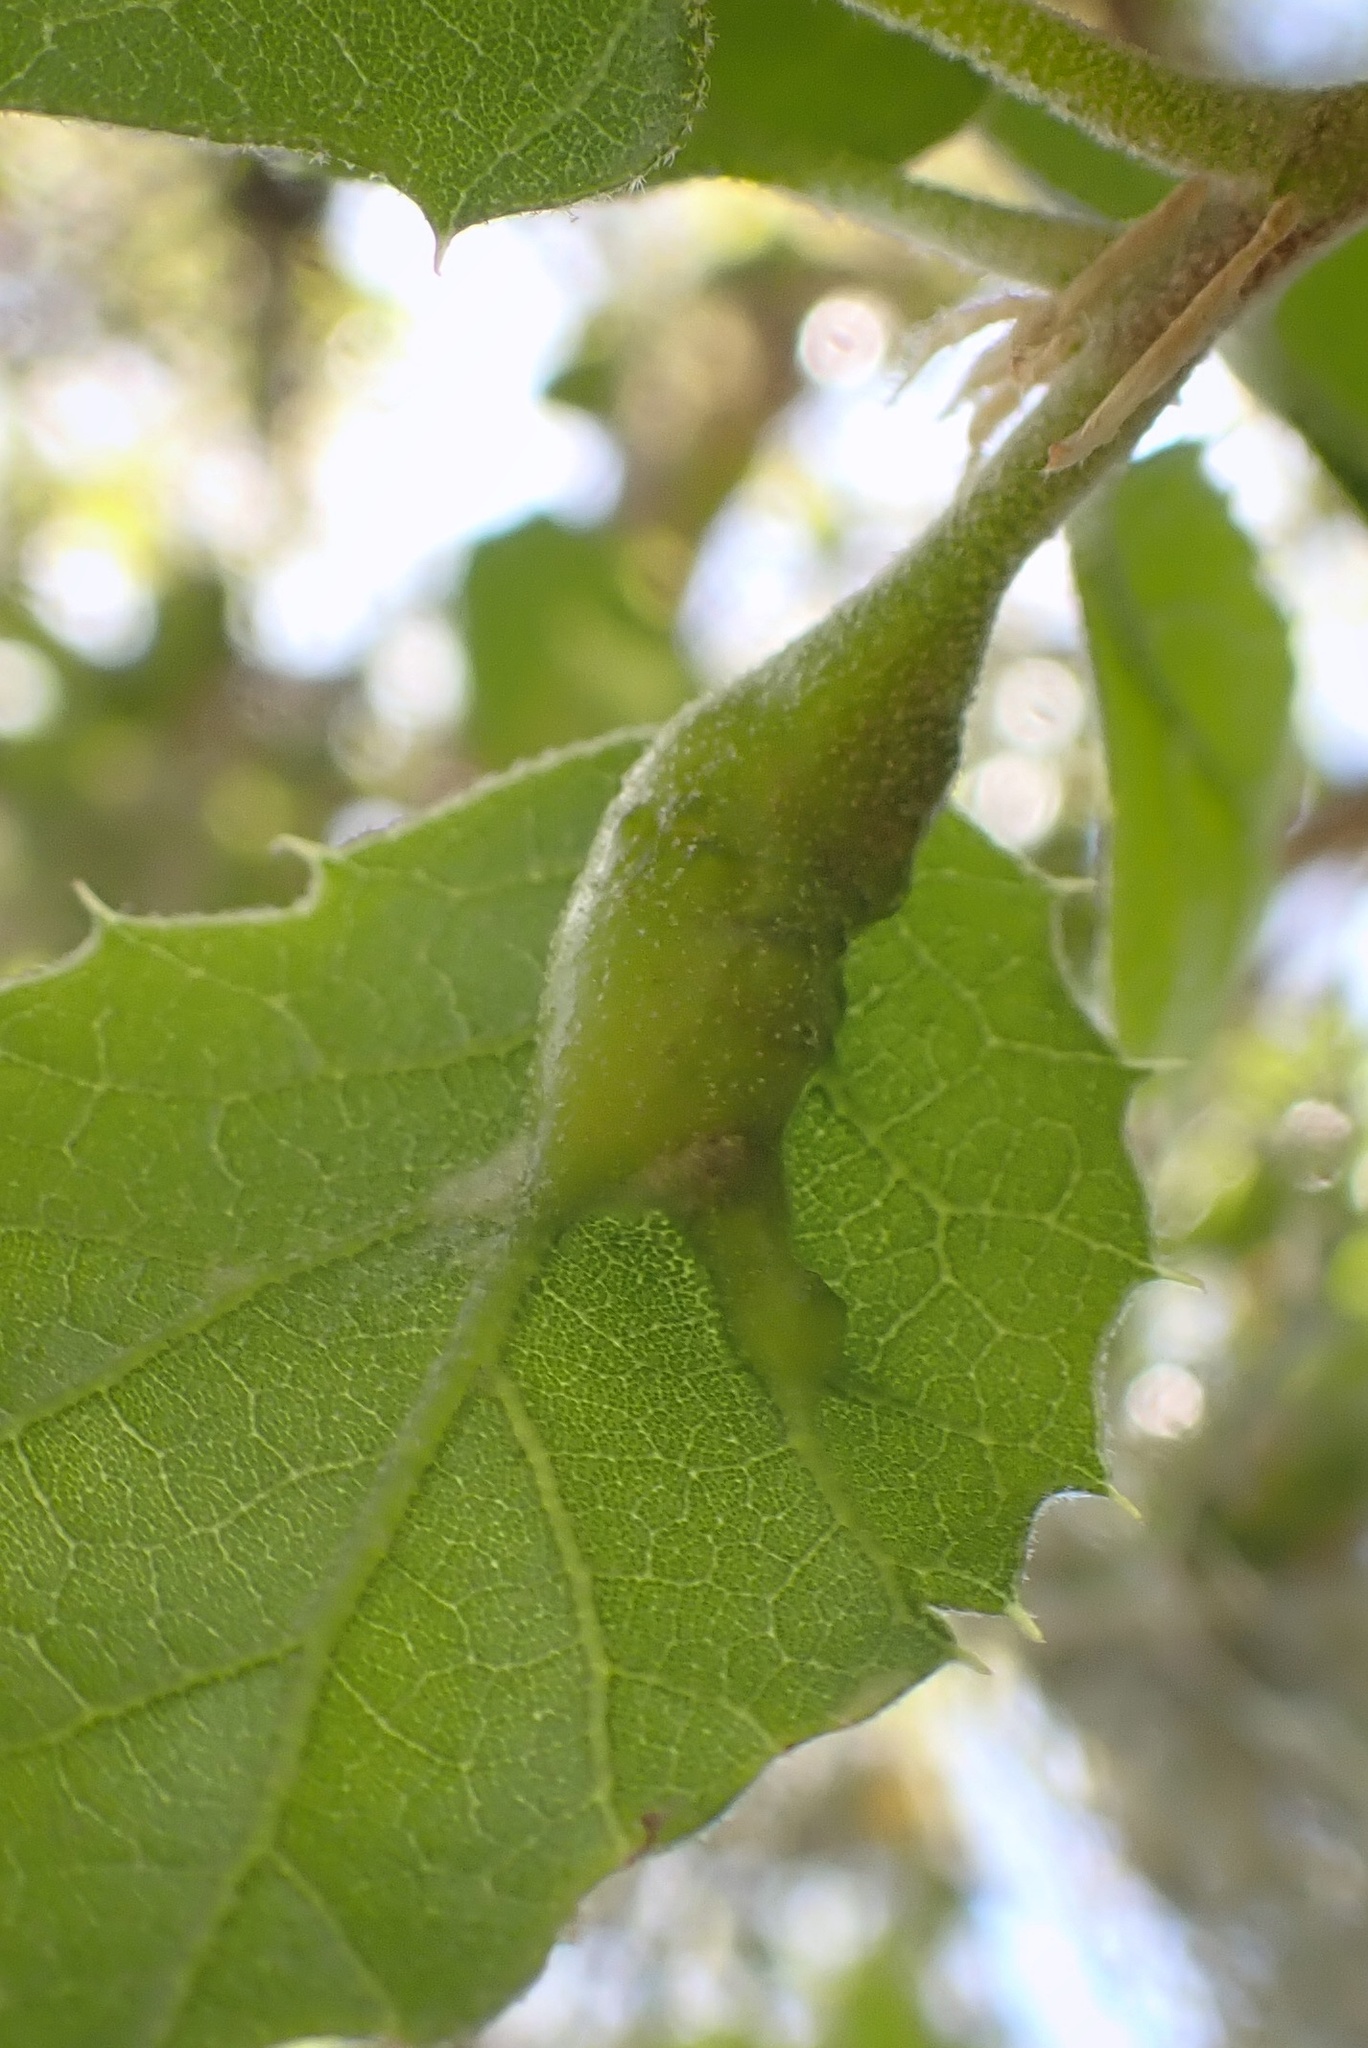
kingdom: Animalia
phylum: Arthropoda
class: Insecta
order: Hymenoptera
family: Cynipidae
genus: Melikaiella
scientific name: Melikaiella
